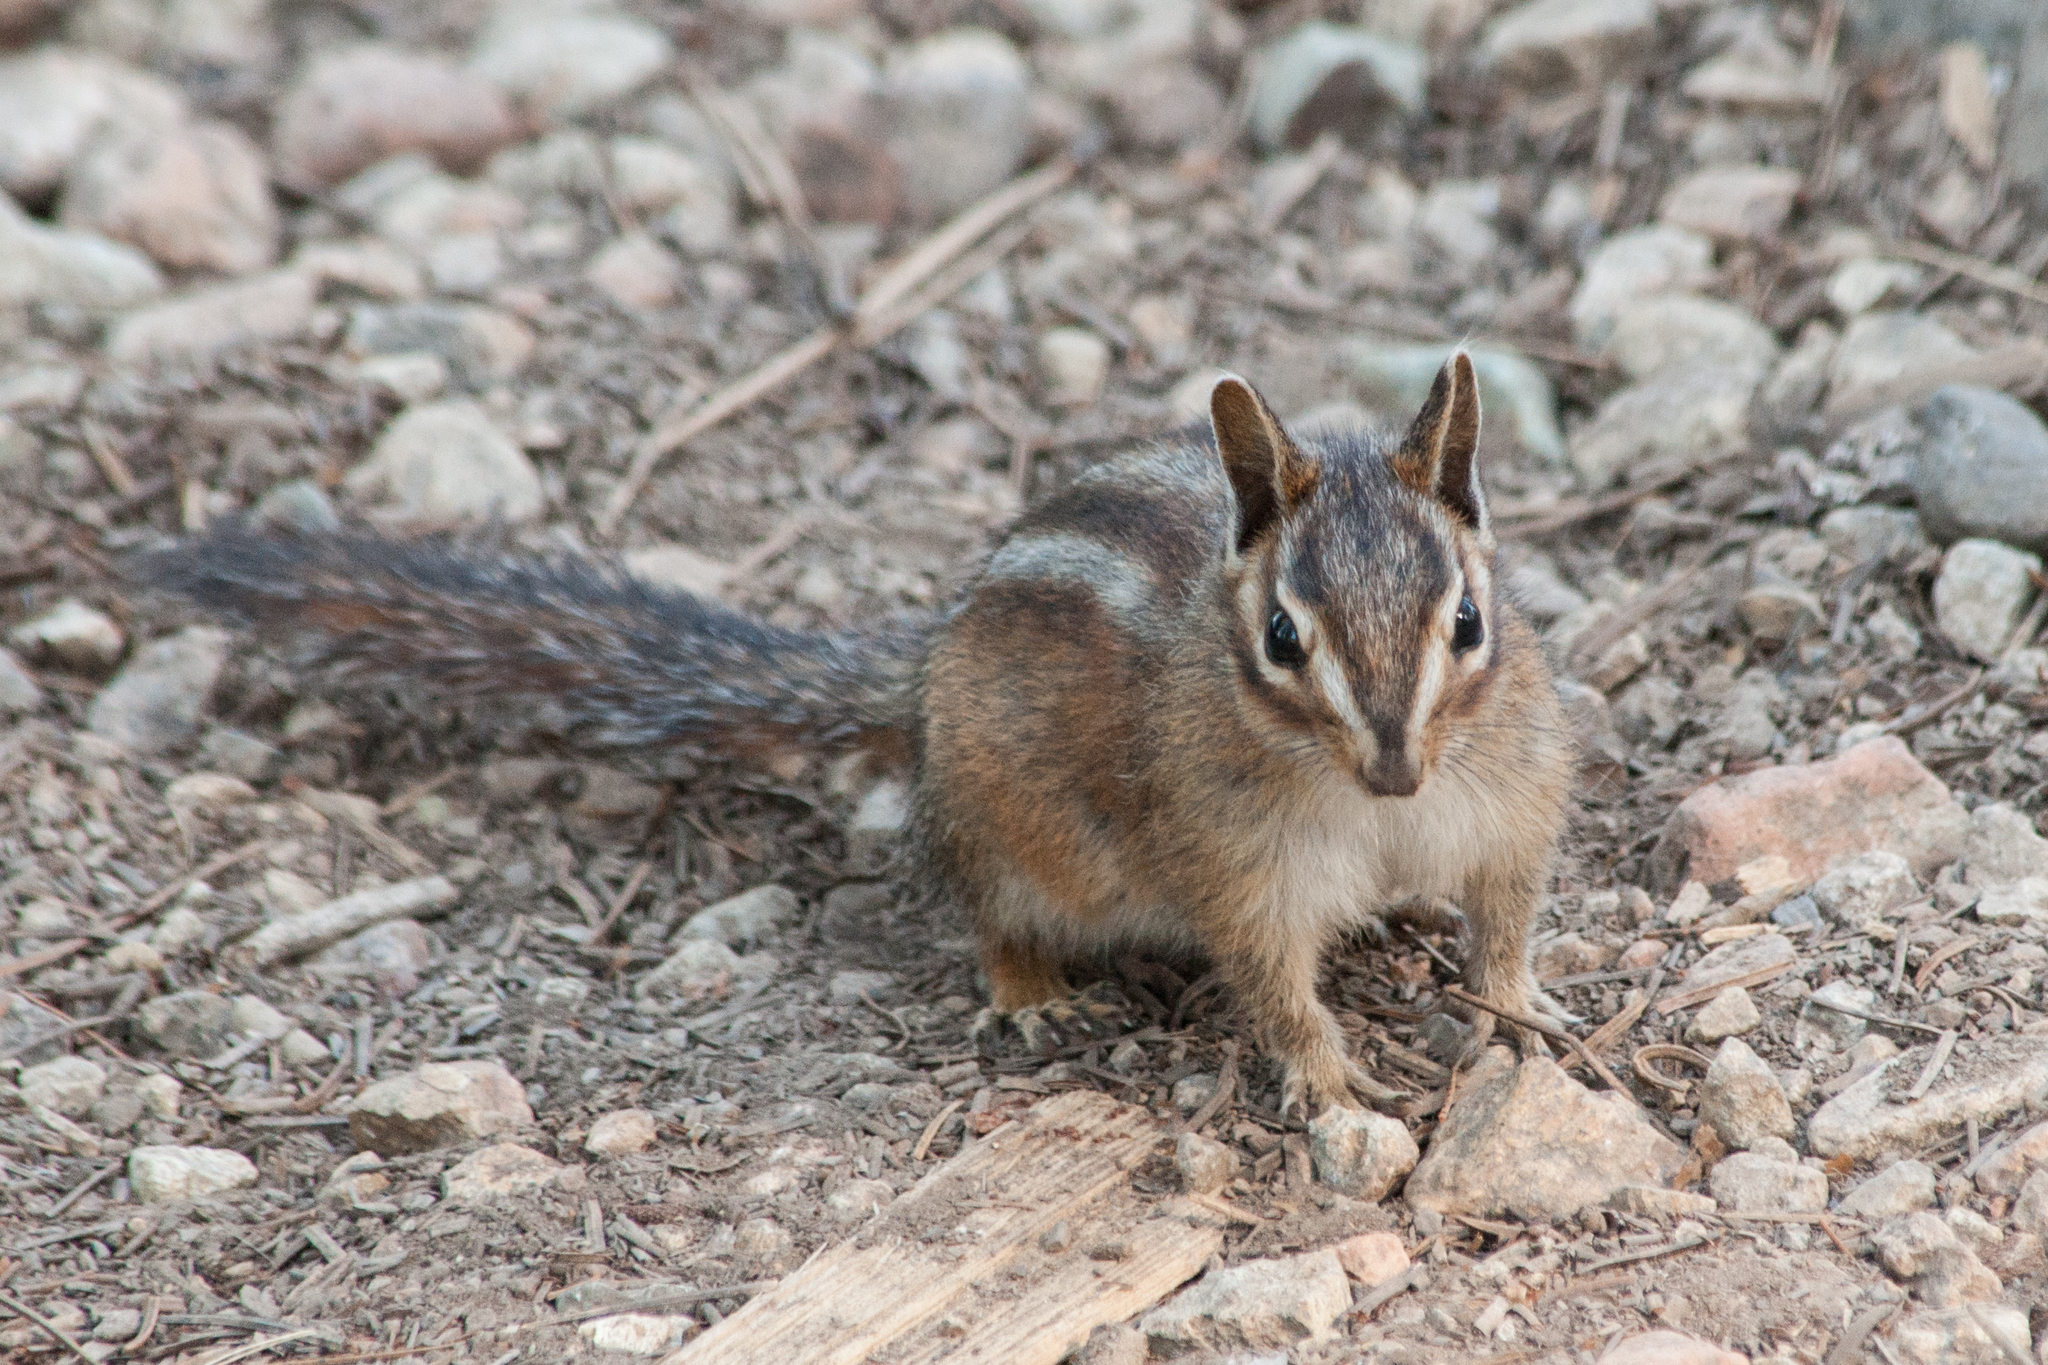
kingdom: Animalia
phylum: Chordata
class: Mammalia
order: Rodentia
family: Sciuridae
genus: Tamias
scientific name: Tamias amoenus
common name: Yellow-pine chipmunk
